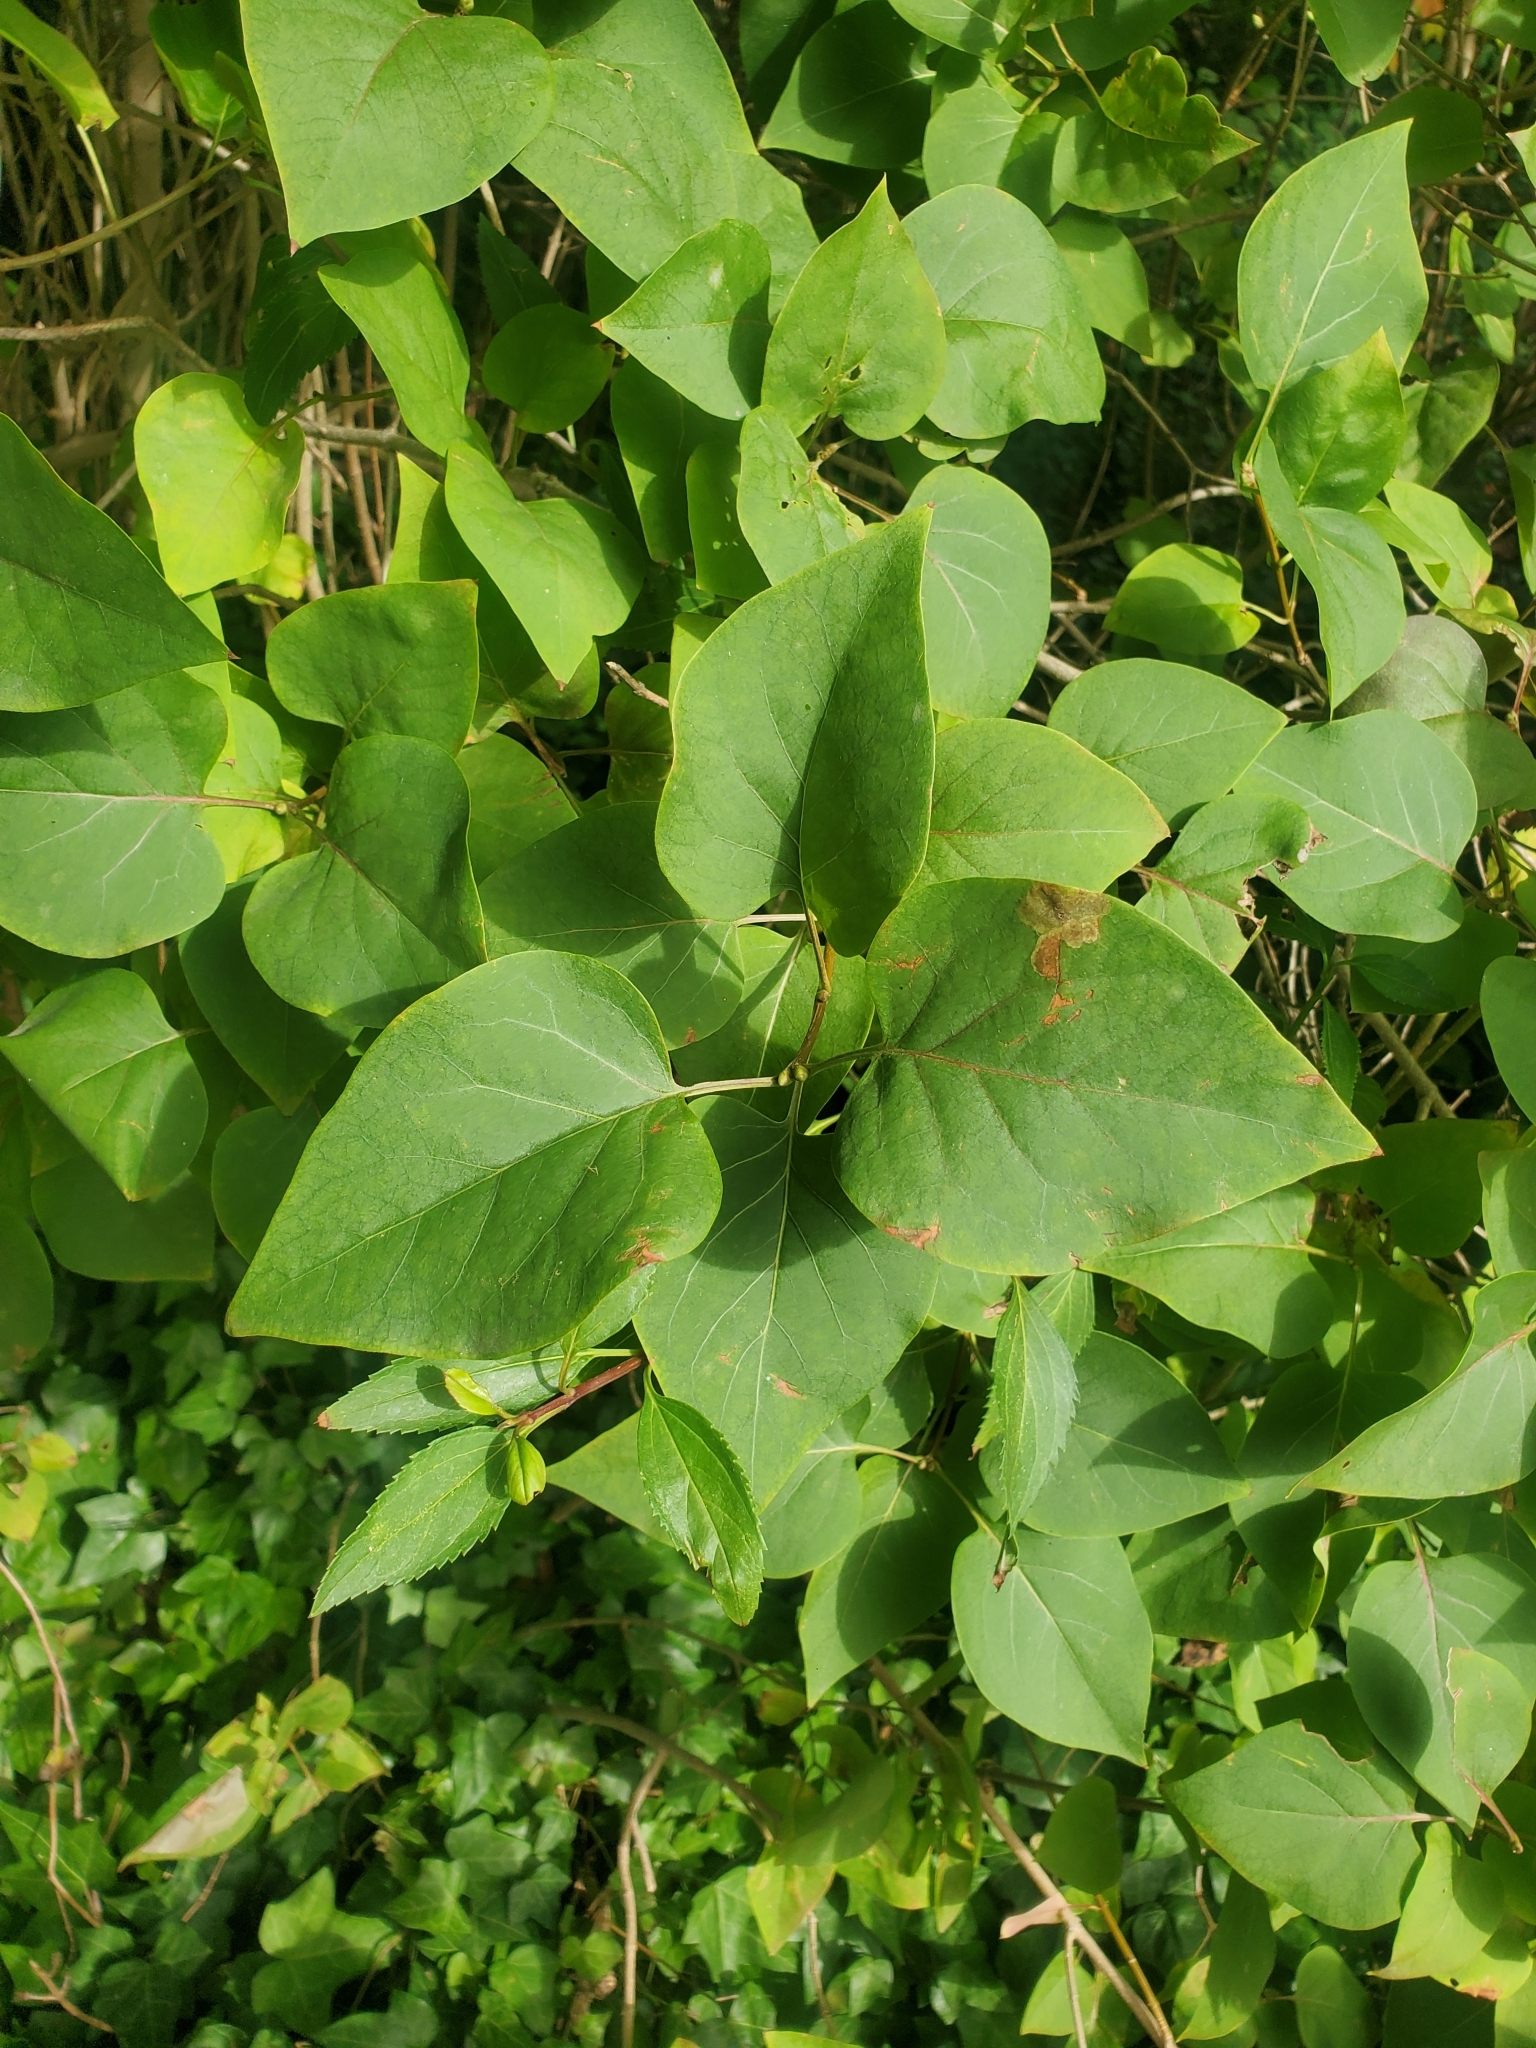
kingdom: Plantae
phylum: Tracheophyta
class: Magnoliopsida
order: Lamiales
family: Oleaceae
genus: Syringa
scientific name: Syringa vulgaris
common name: Common lilac
